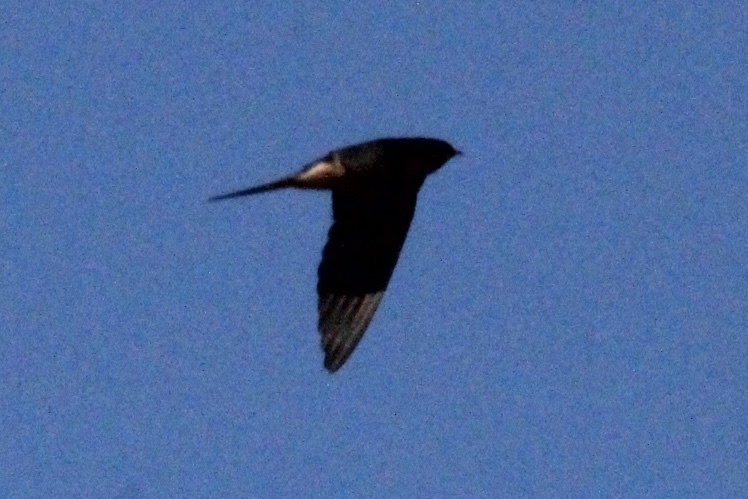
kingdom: Animalia
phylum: Chordata
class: Aves
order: Passeriformes
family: Hirundinidae
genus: Hirundo
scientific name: Hirundo rustica
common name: Barn swallow
